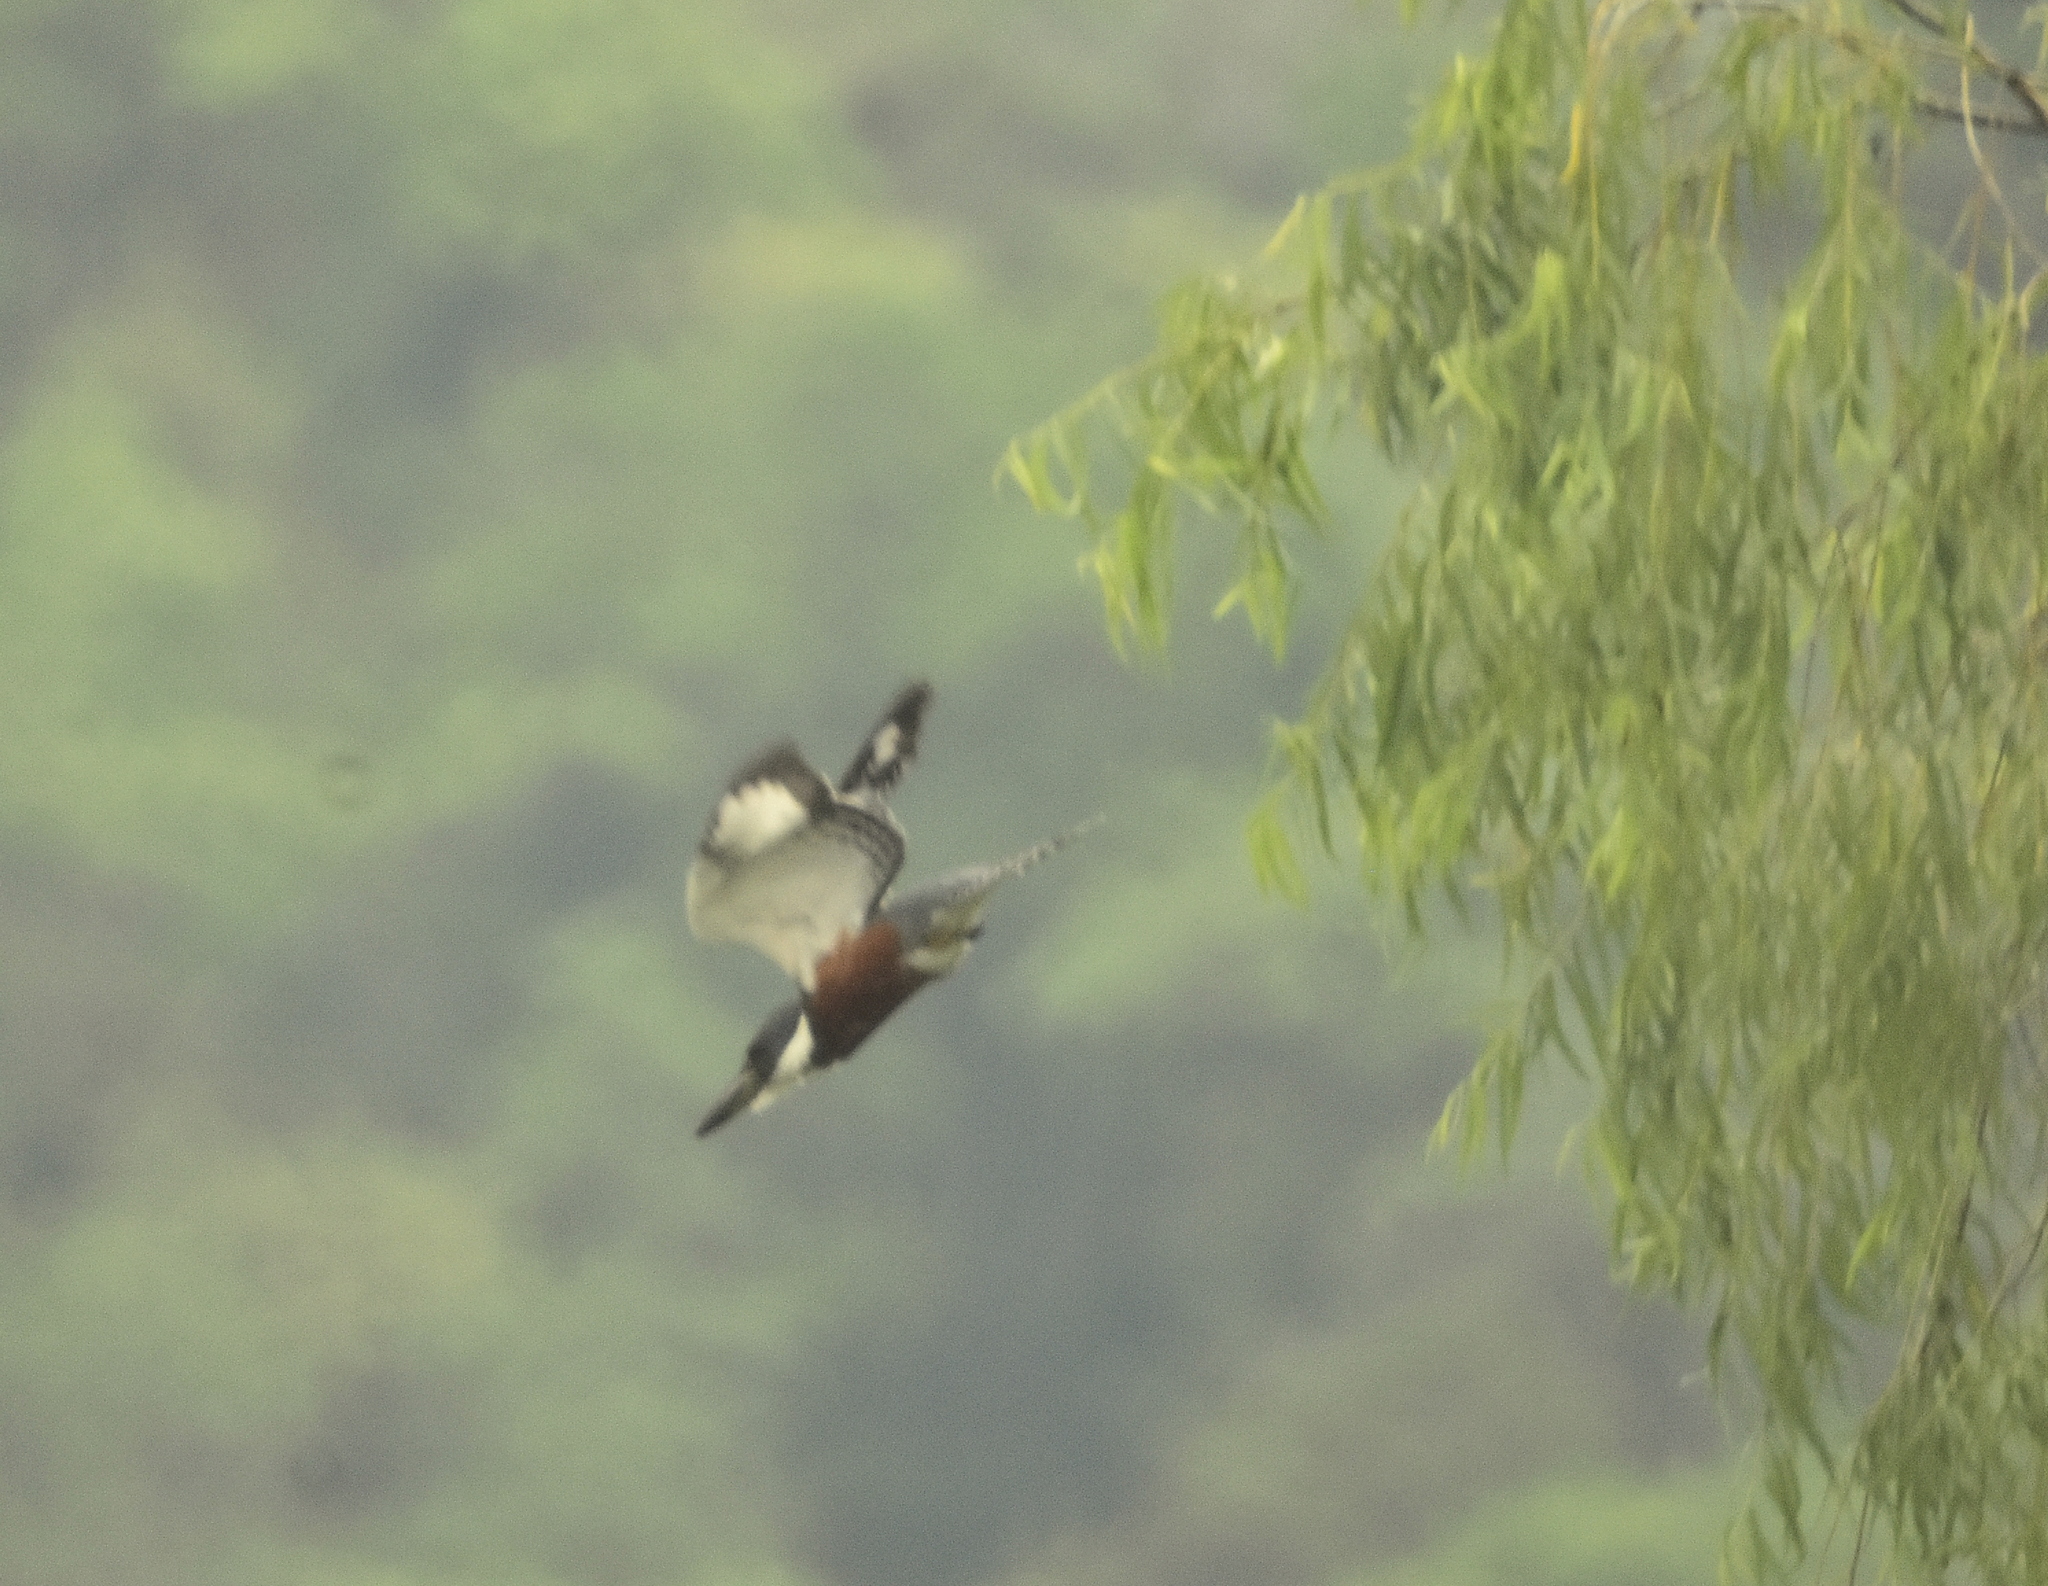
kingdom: Animalia
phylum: Chordata
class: Aves
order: Coraciiformes
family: Alcedinidae
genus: Megaceryle
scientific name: Megaceryle torquata
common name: Ringed kingfisher
